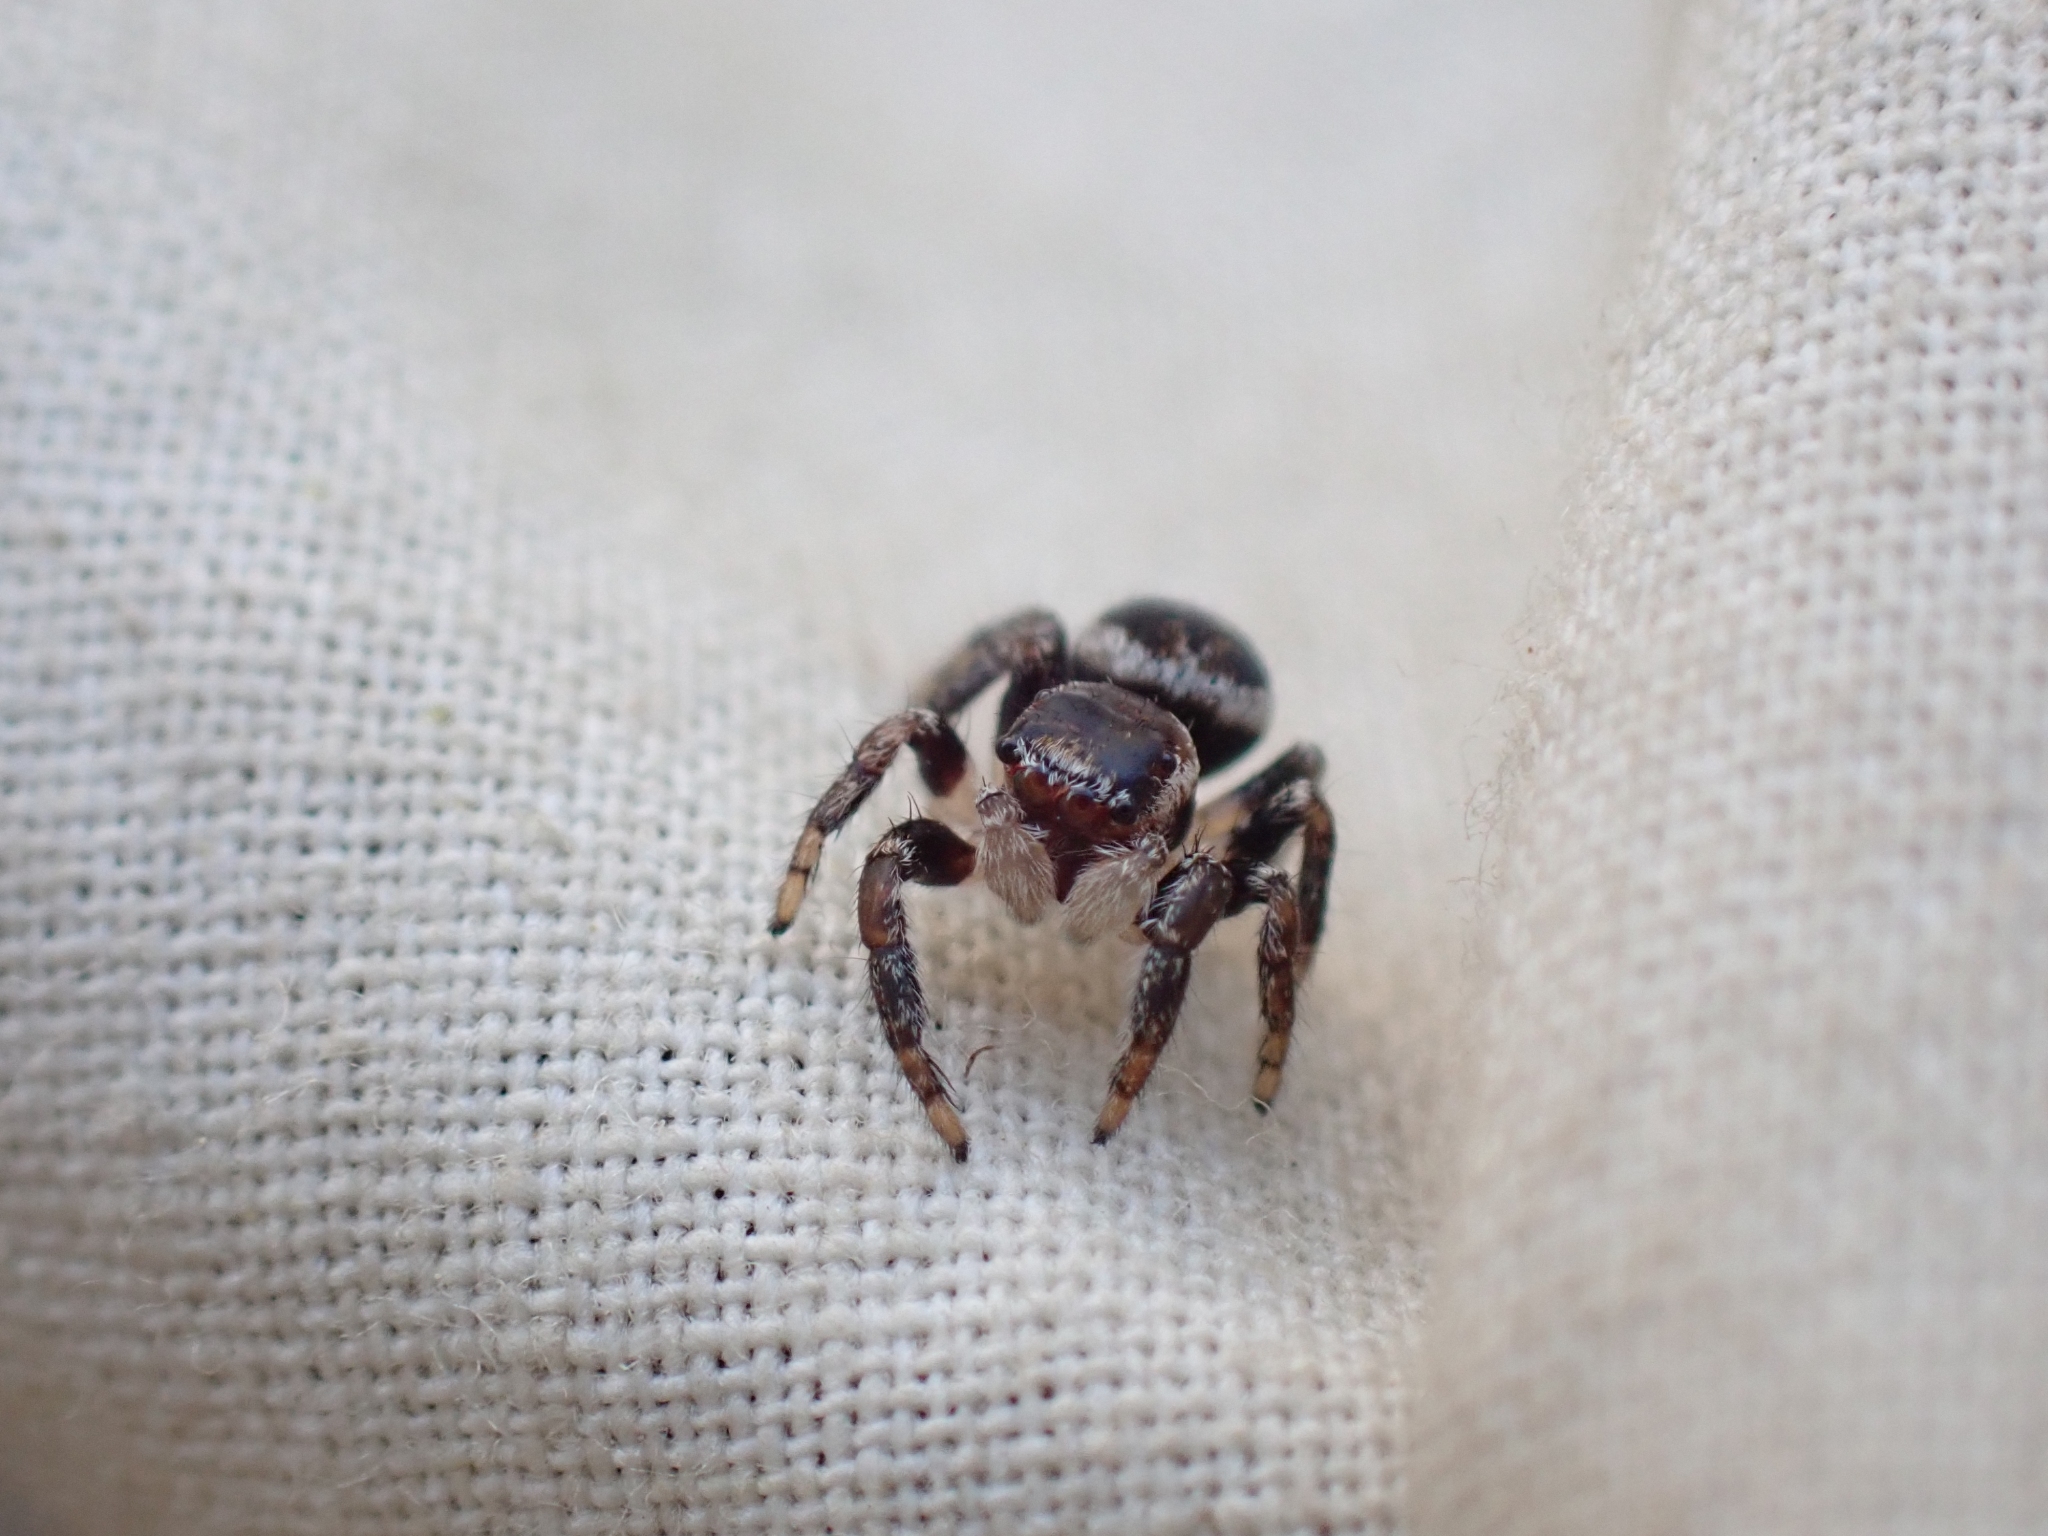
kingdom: Animalia
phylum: Arthropoda
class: Arachnida
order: Araneae
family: Salticidae
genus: Evarcha
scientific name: Evarcha proszynskii
